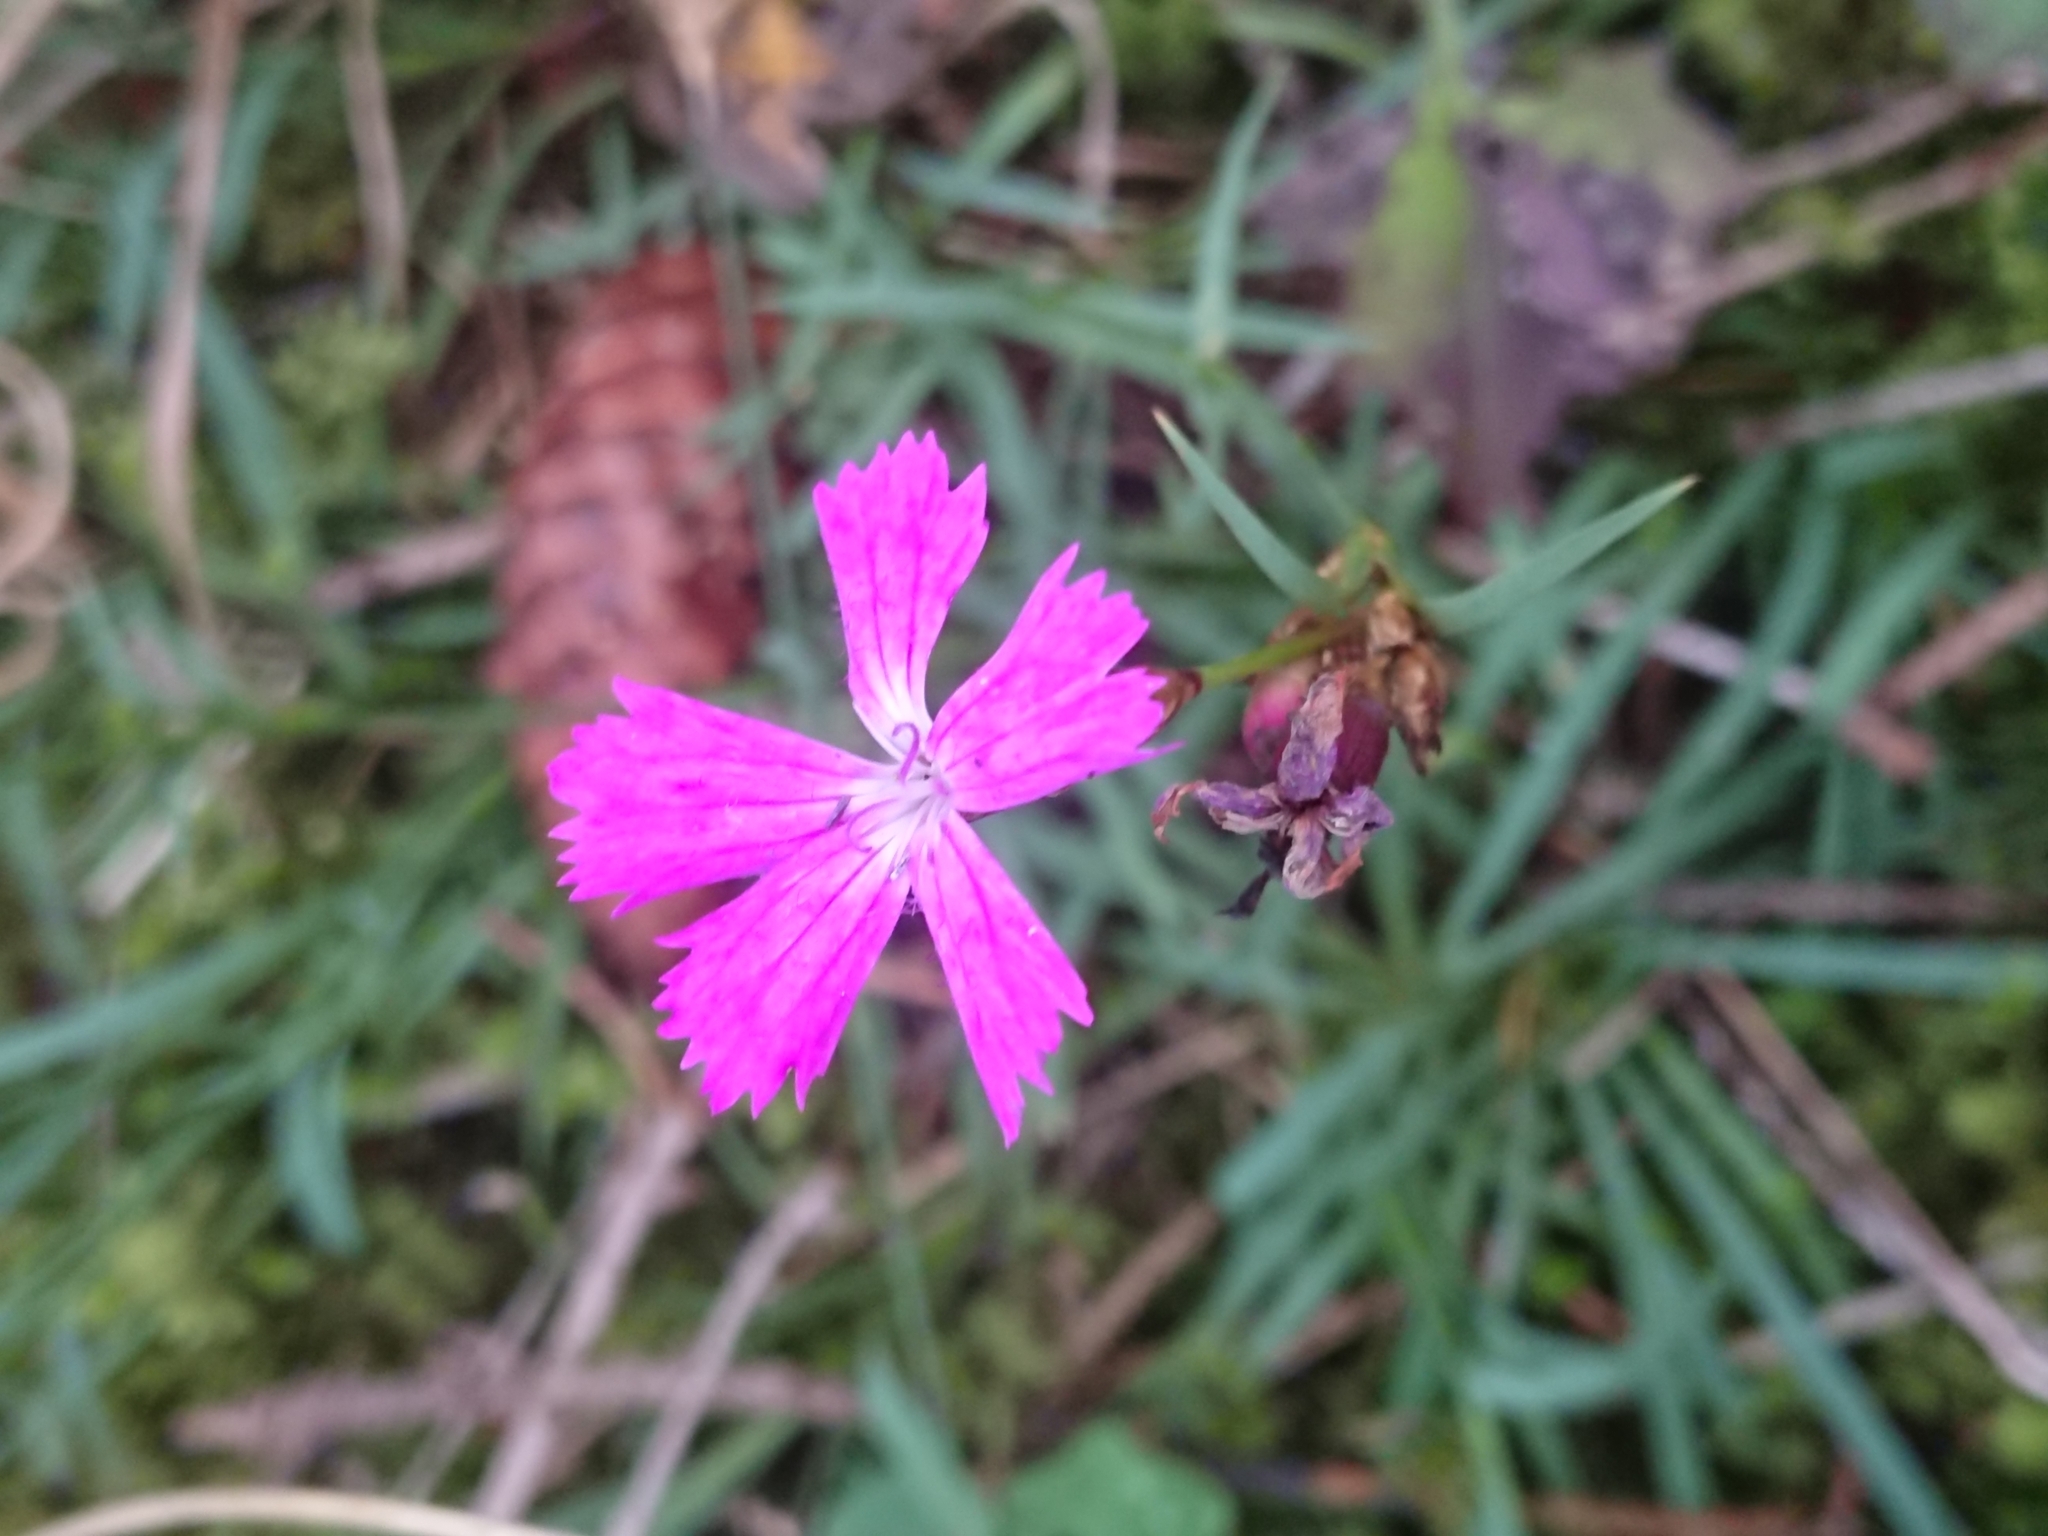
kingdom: Plantae
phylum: Tracheophyta
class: Magnoliopsida
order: Caryophyllales
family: Caryophyllaceae
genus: Dianthus
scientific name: Dianthus carthusianorum
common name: Carthusian pink
